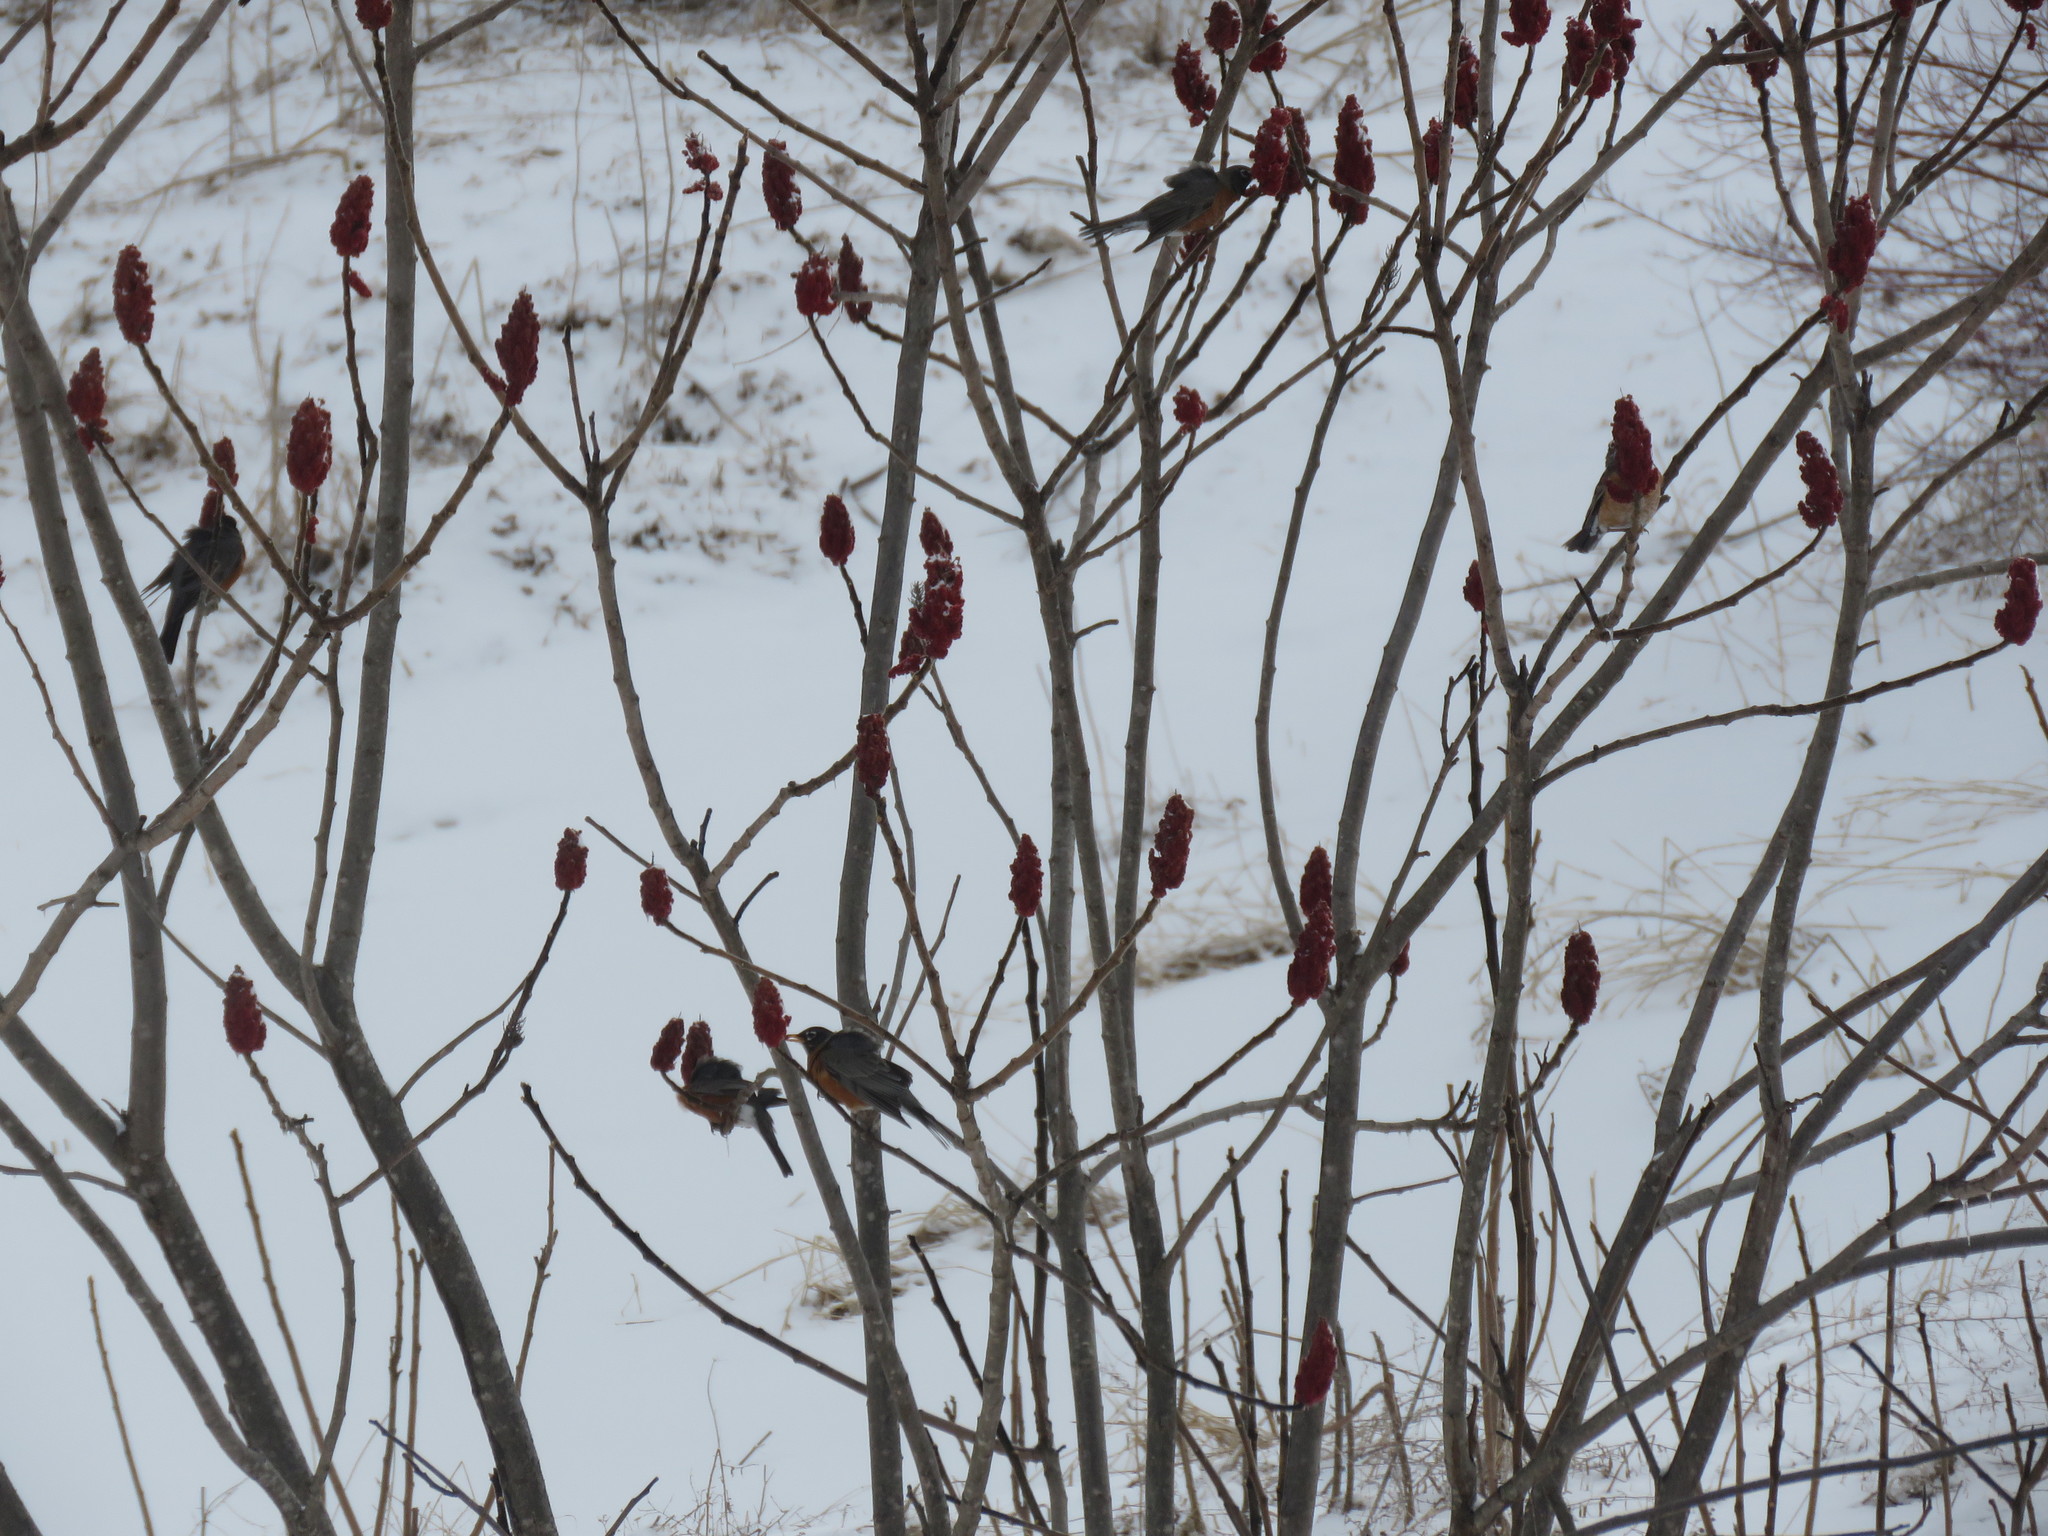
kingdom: Animalia
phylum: Chordata
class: Aves
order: Passeriformes
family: Turdidae
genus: Turdus
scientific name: Turdus migratorius
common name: American robin
